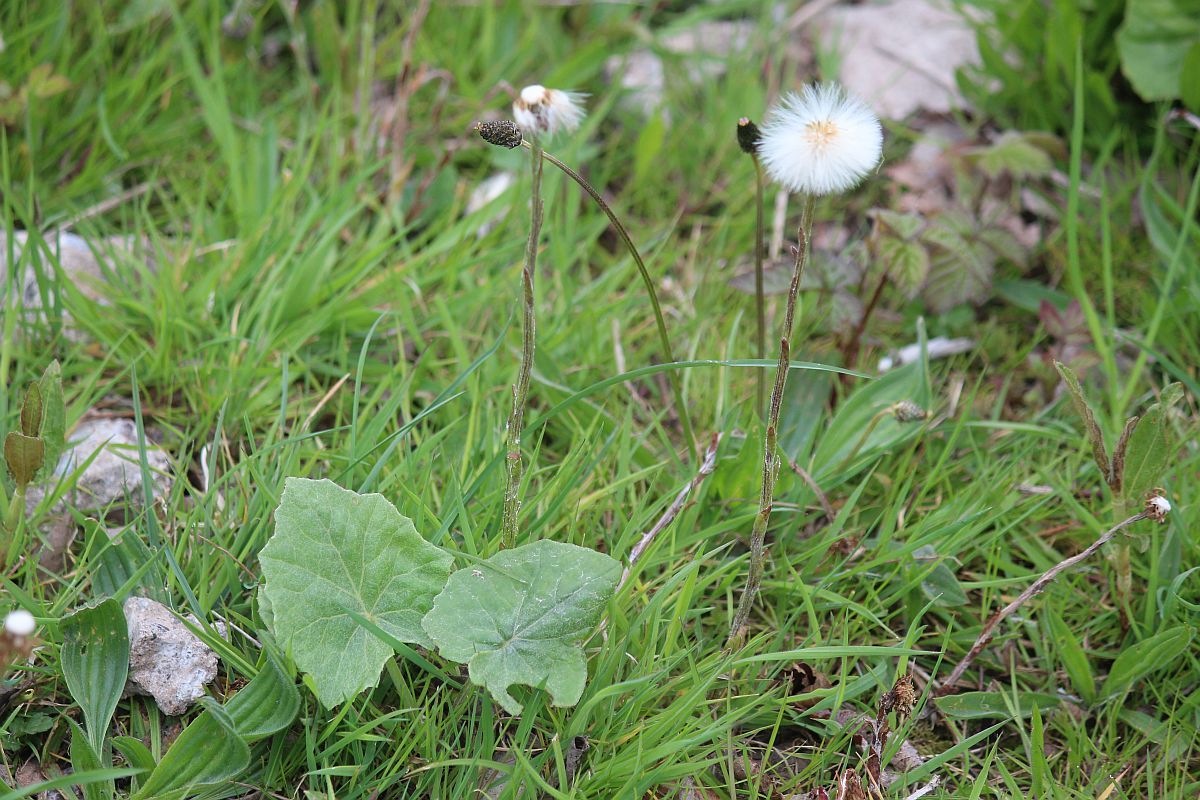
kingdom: Plantae
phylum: Tracheophyta
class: Magnoliopsida
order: Asterales
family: Asteraceae
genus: Tussilago
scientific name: Tussilago farfara
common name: Coltsfoot
